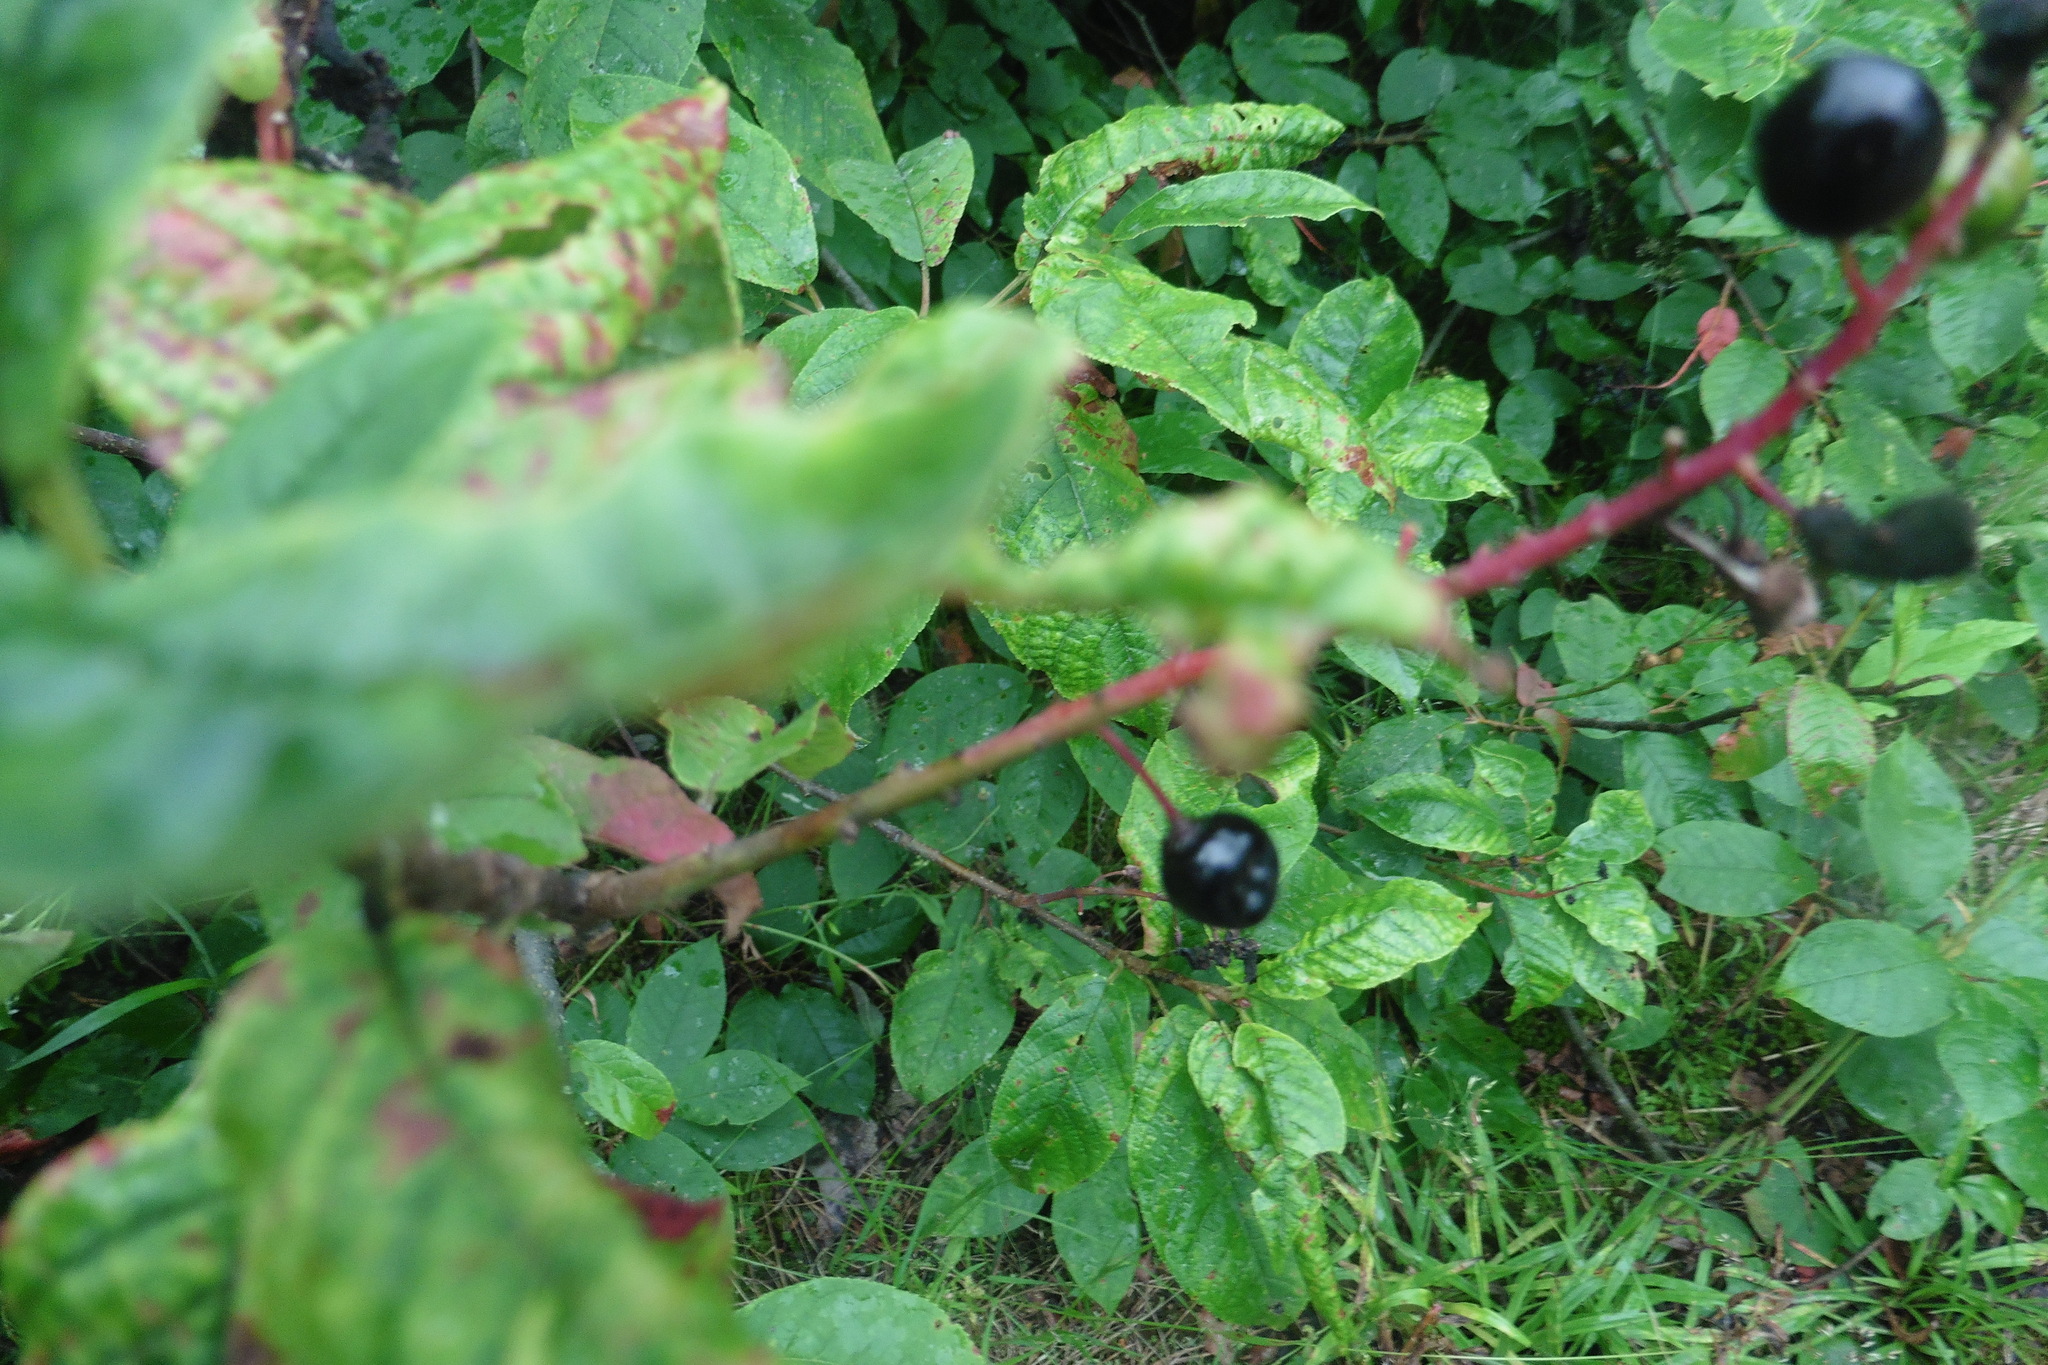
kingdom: Plantae
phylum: Tracheophyta
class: Magnoliopsida
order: Rosales
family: Rosaceae
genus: Prunus
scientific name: Prunus padus
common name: Bird cherry
